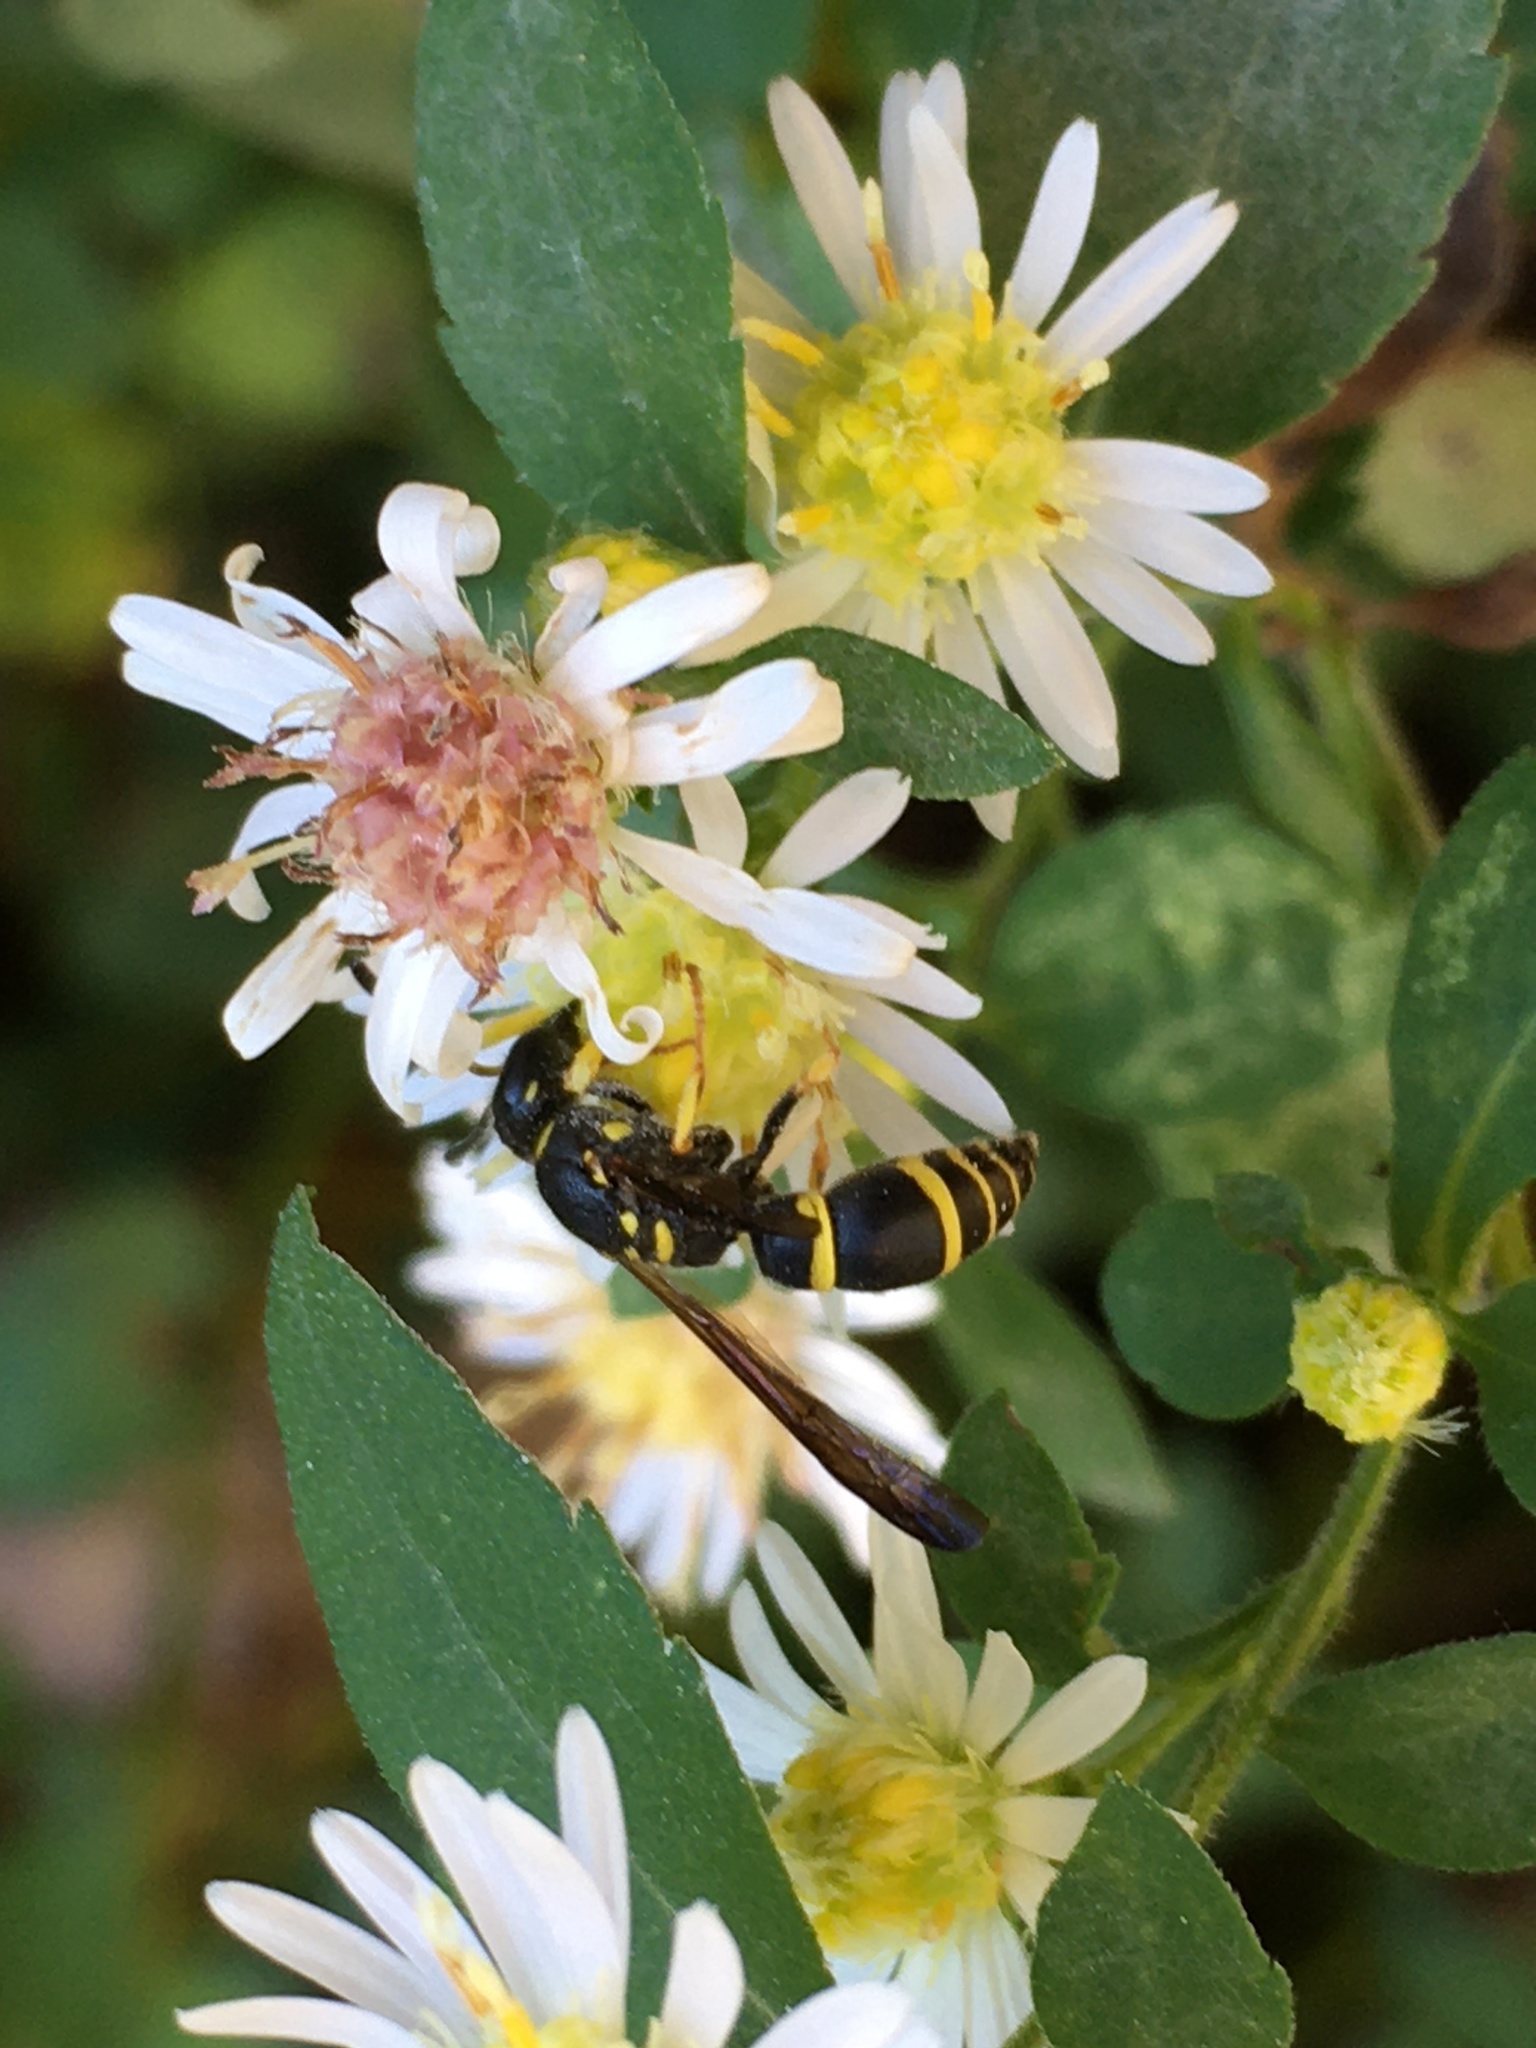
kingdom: Animalia
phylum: Arthropoda
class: Insecta
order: Hymenoptera
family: Vespidae
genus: Ancistrocerus
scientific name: Ancistrocerus adiabatus
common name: Bramble mason wasp
